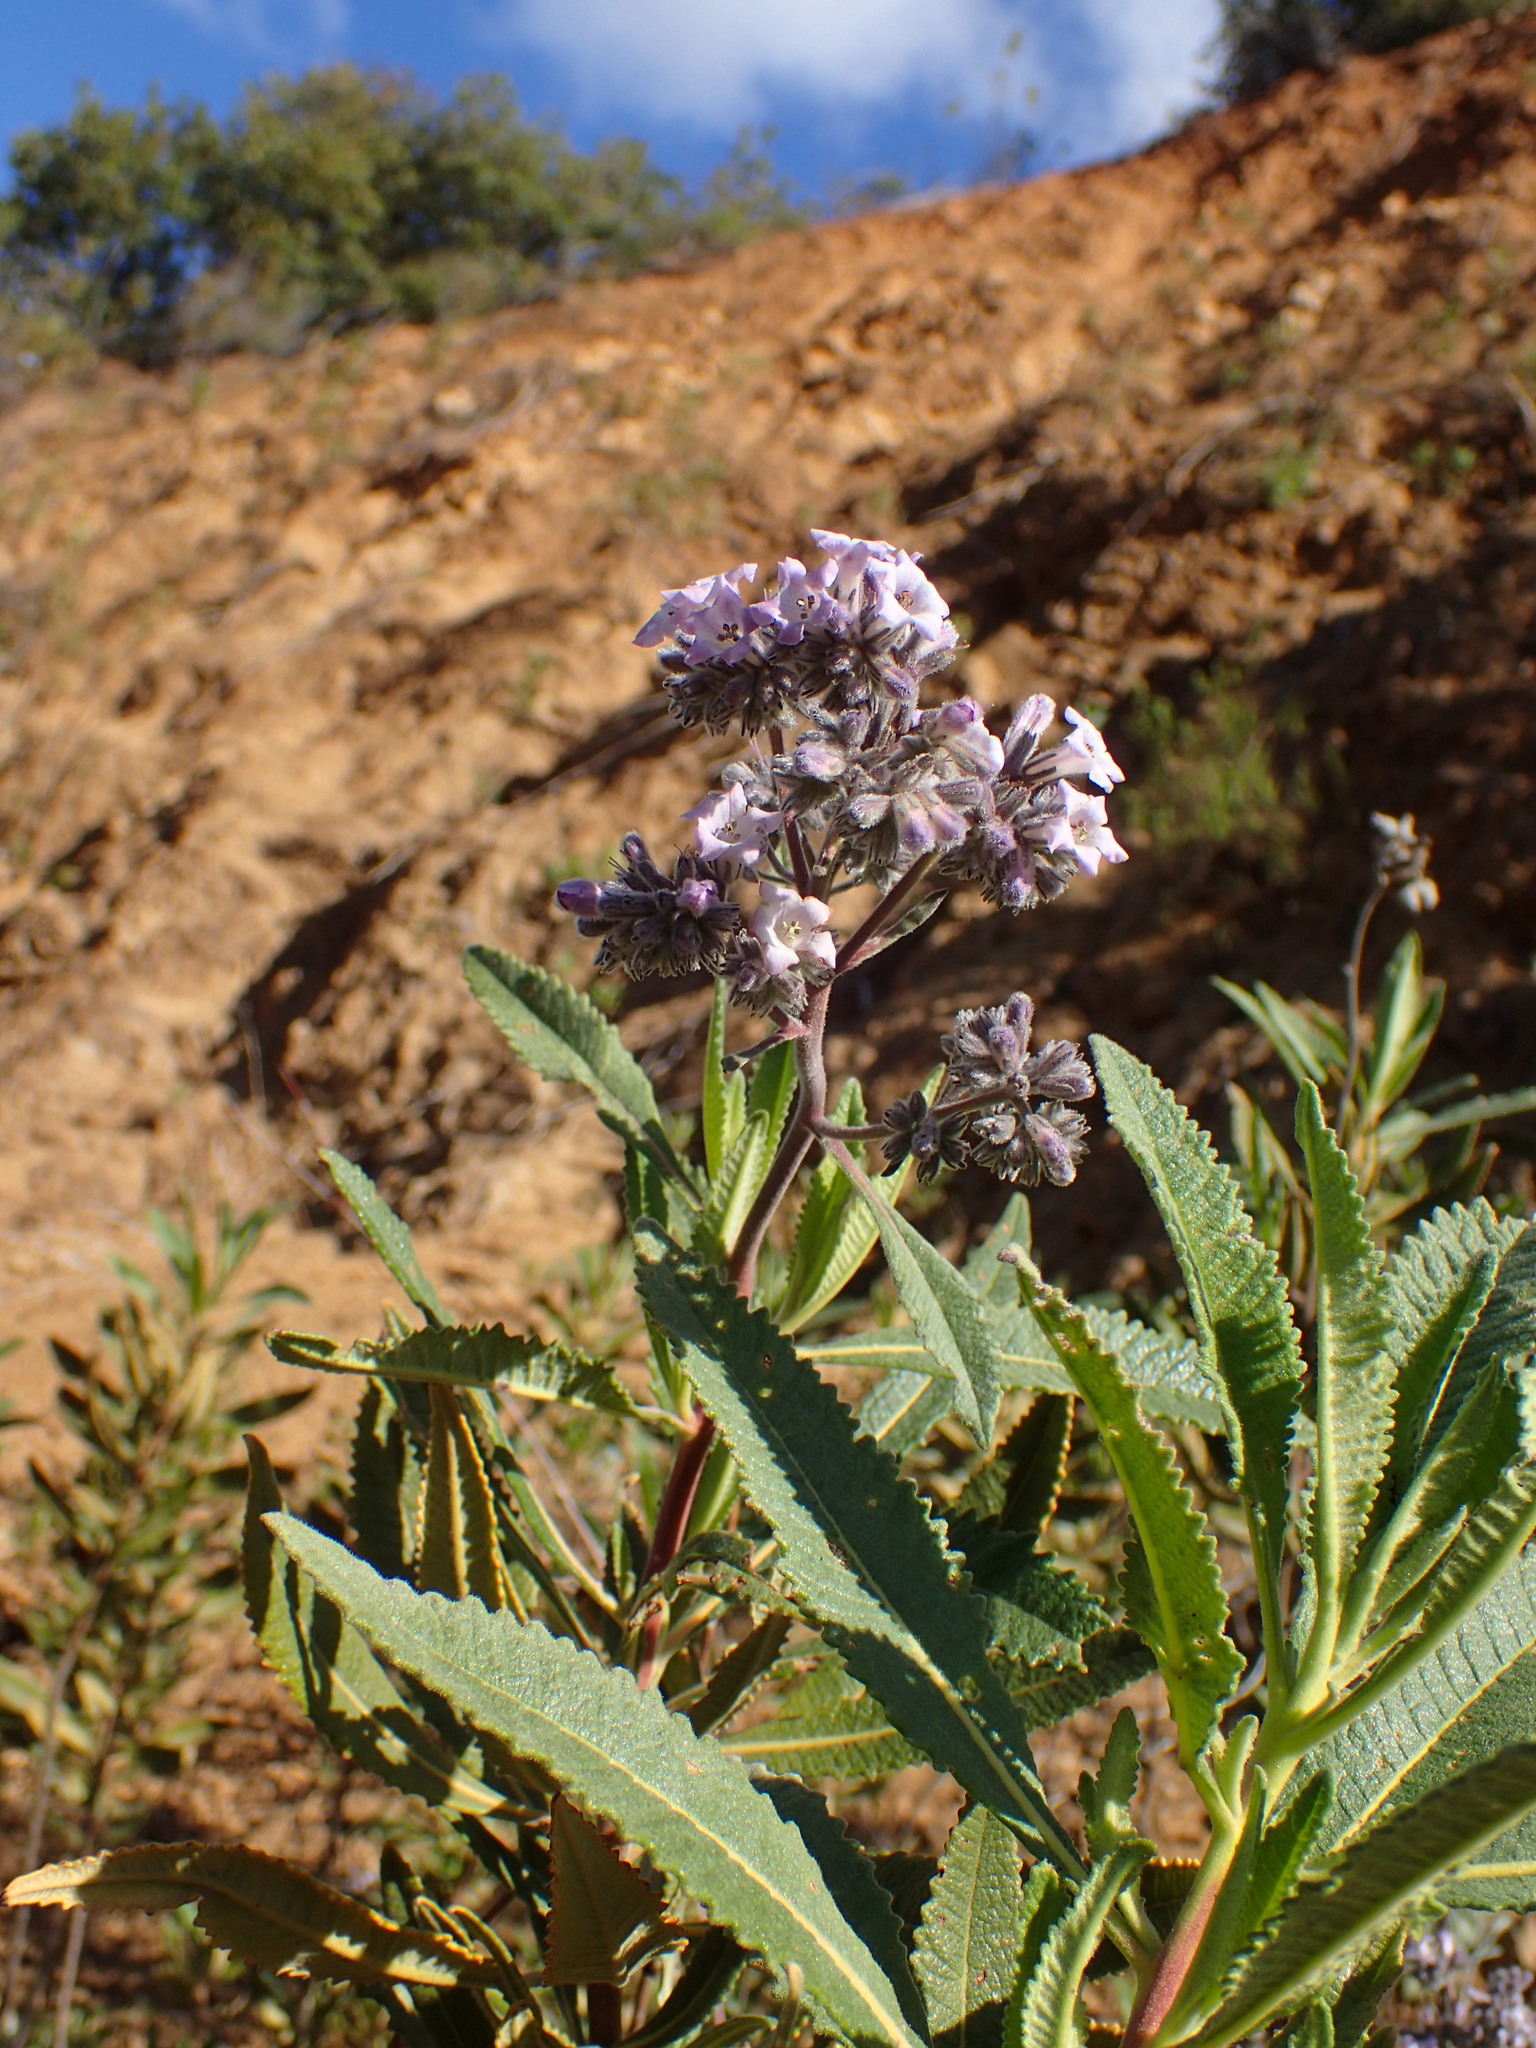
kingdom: Plantae
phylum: Tracheophyta
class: Magnoliopsida
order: Boraginales
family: Namaceae
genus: Eriodictyon
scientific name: Eriodictyon crassifolium
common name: Thick-leaf yerba-santa
